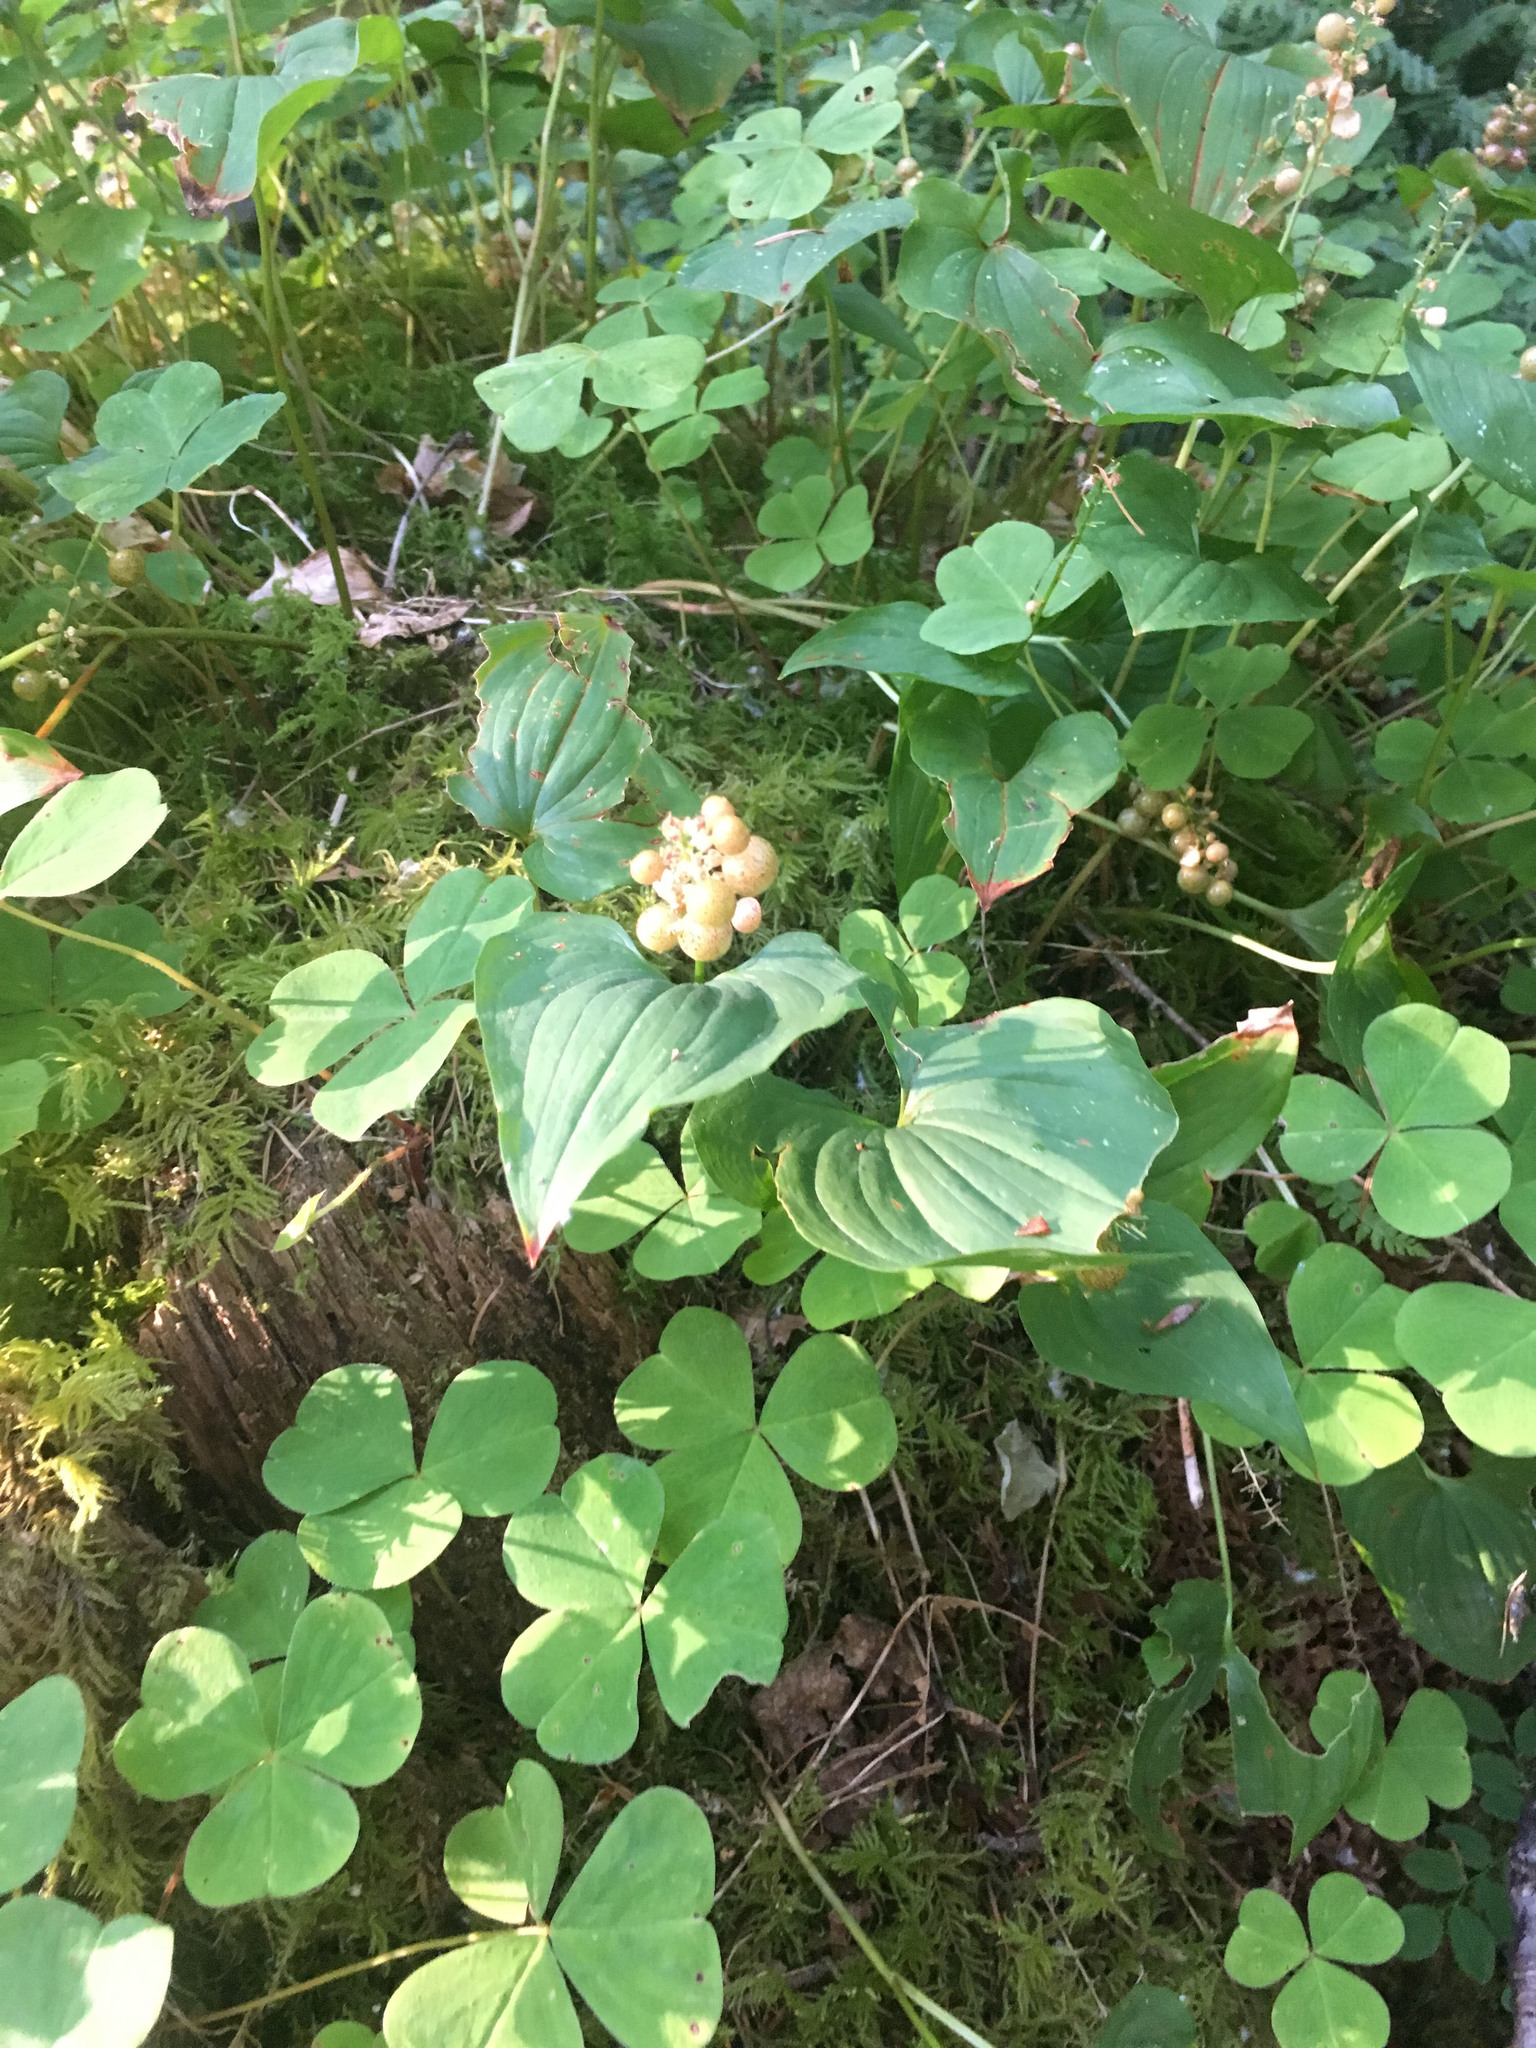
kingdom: Plantae
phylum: Tracheophyta
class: Liliopsida
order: Asparagales
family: Asparagaceae
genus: Maianthemum
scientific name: Maianthemum dilatatum
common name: False lily-of-the-valley
